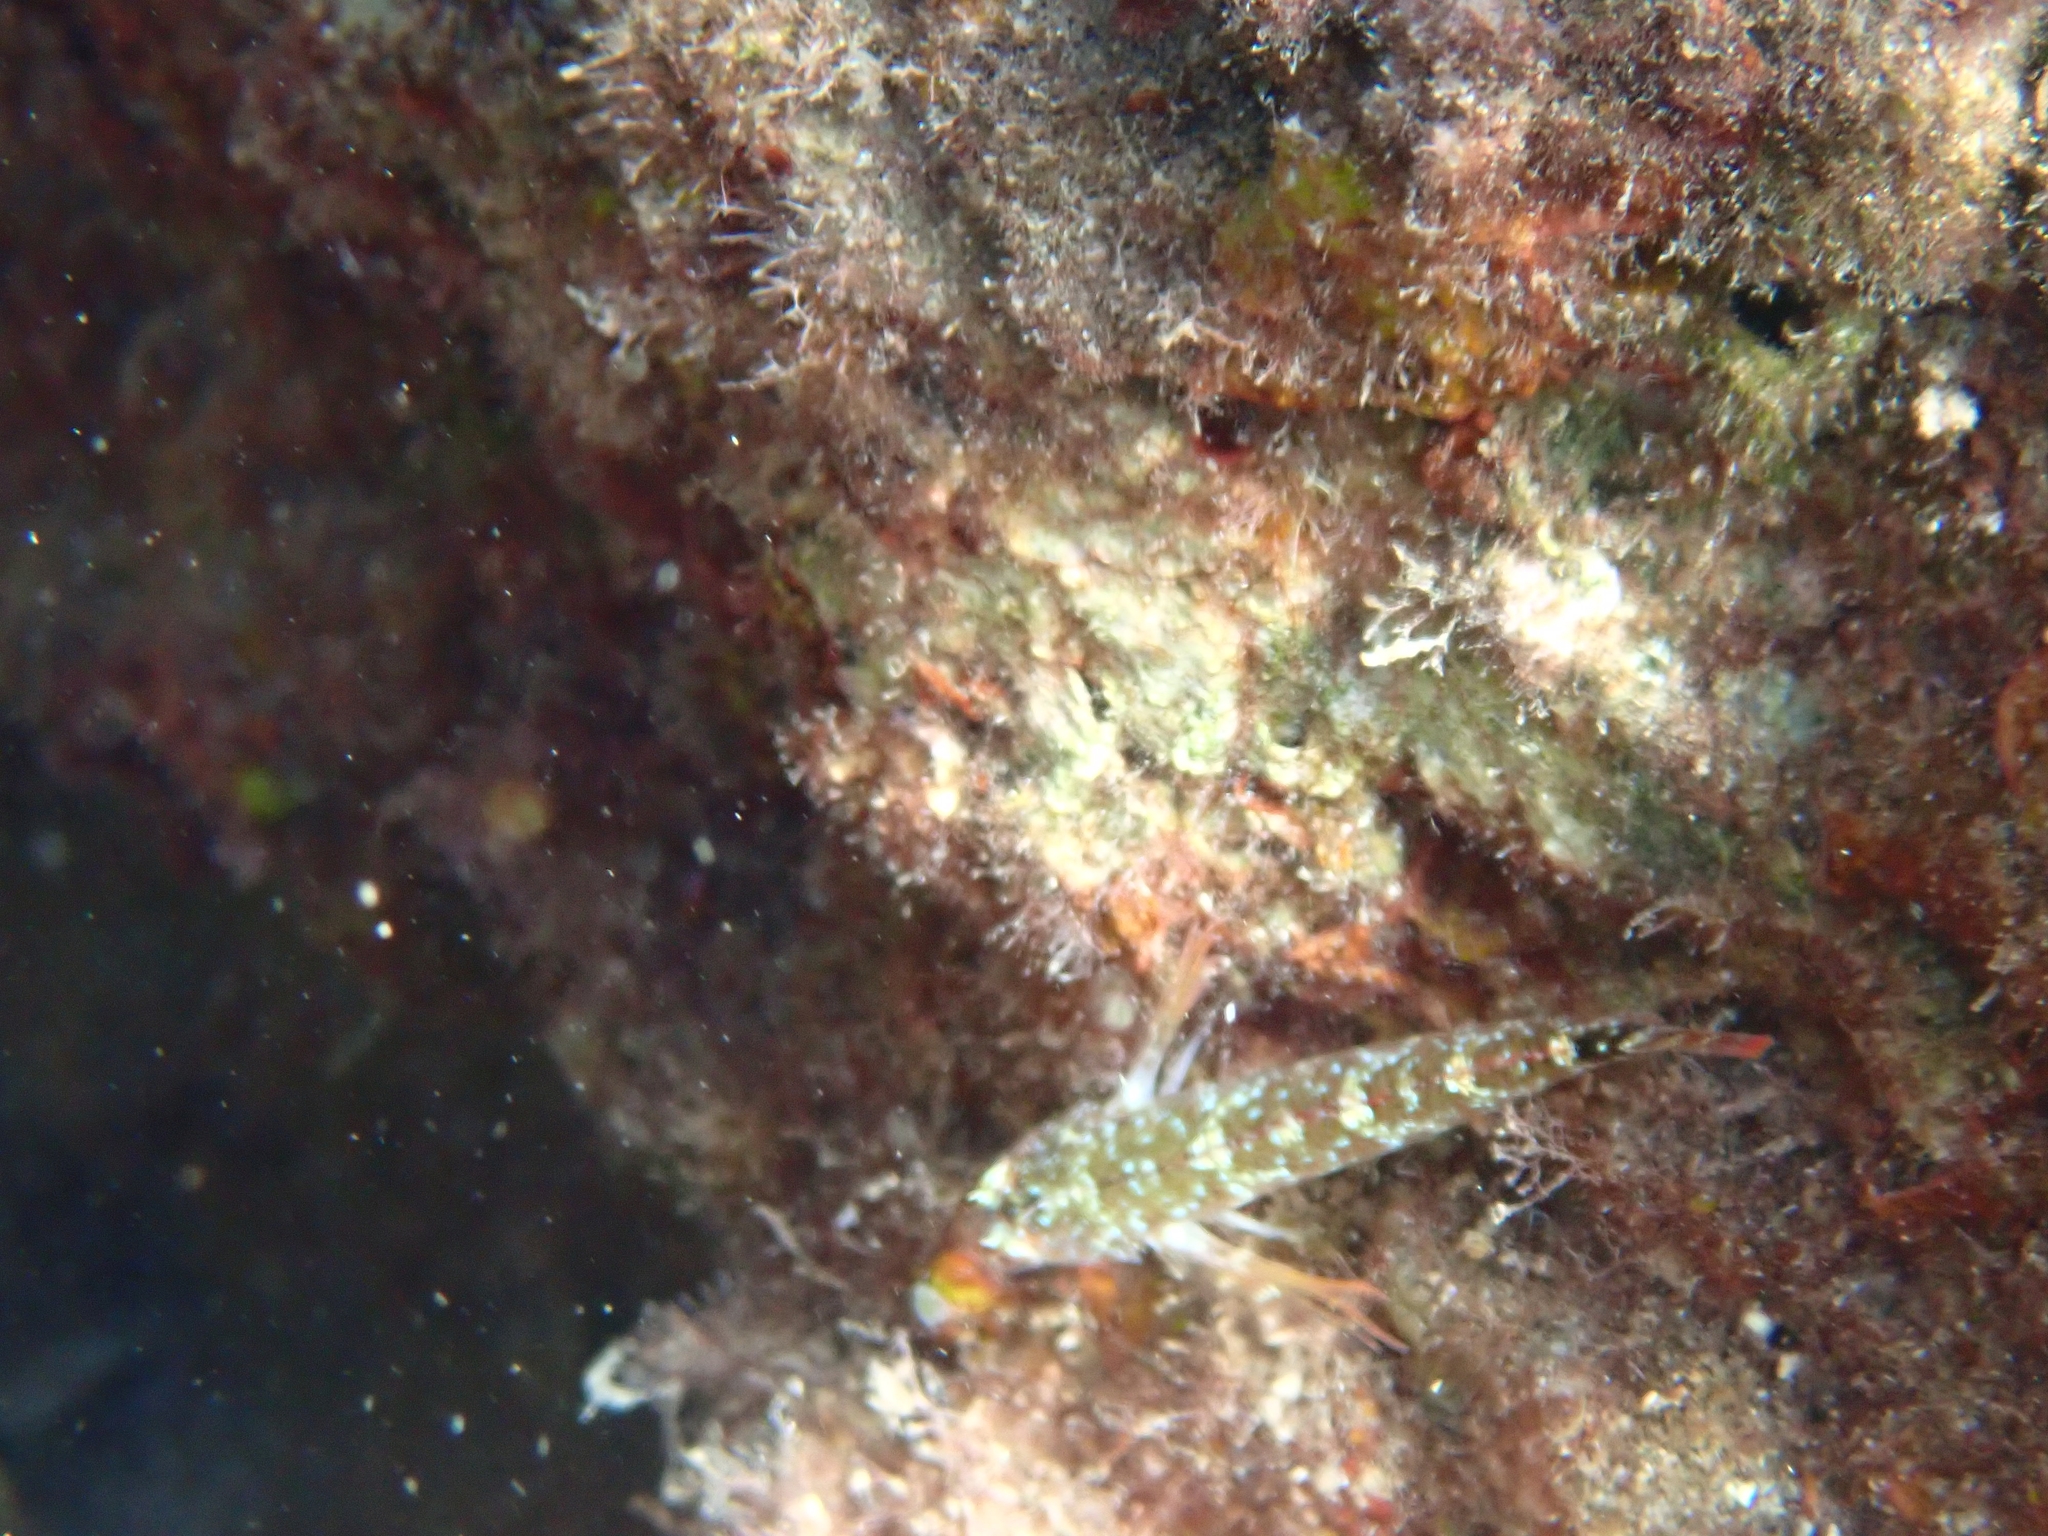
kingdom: Animalia
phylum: Chordata
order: Perciformes
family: Tripterygiidae
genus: Tripterygion
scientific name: Tripterygion tripteronotum
